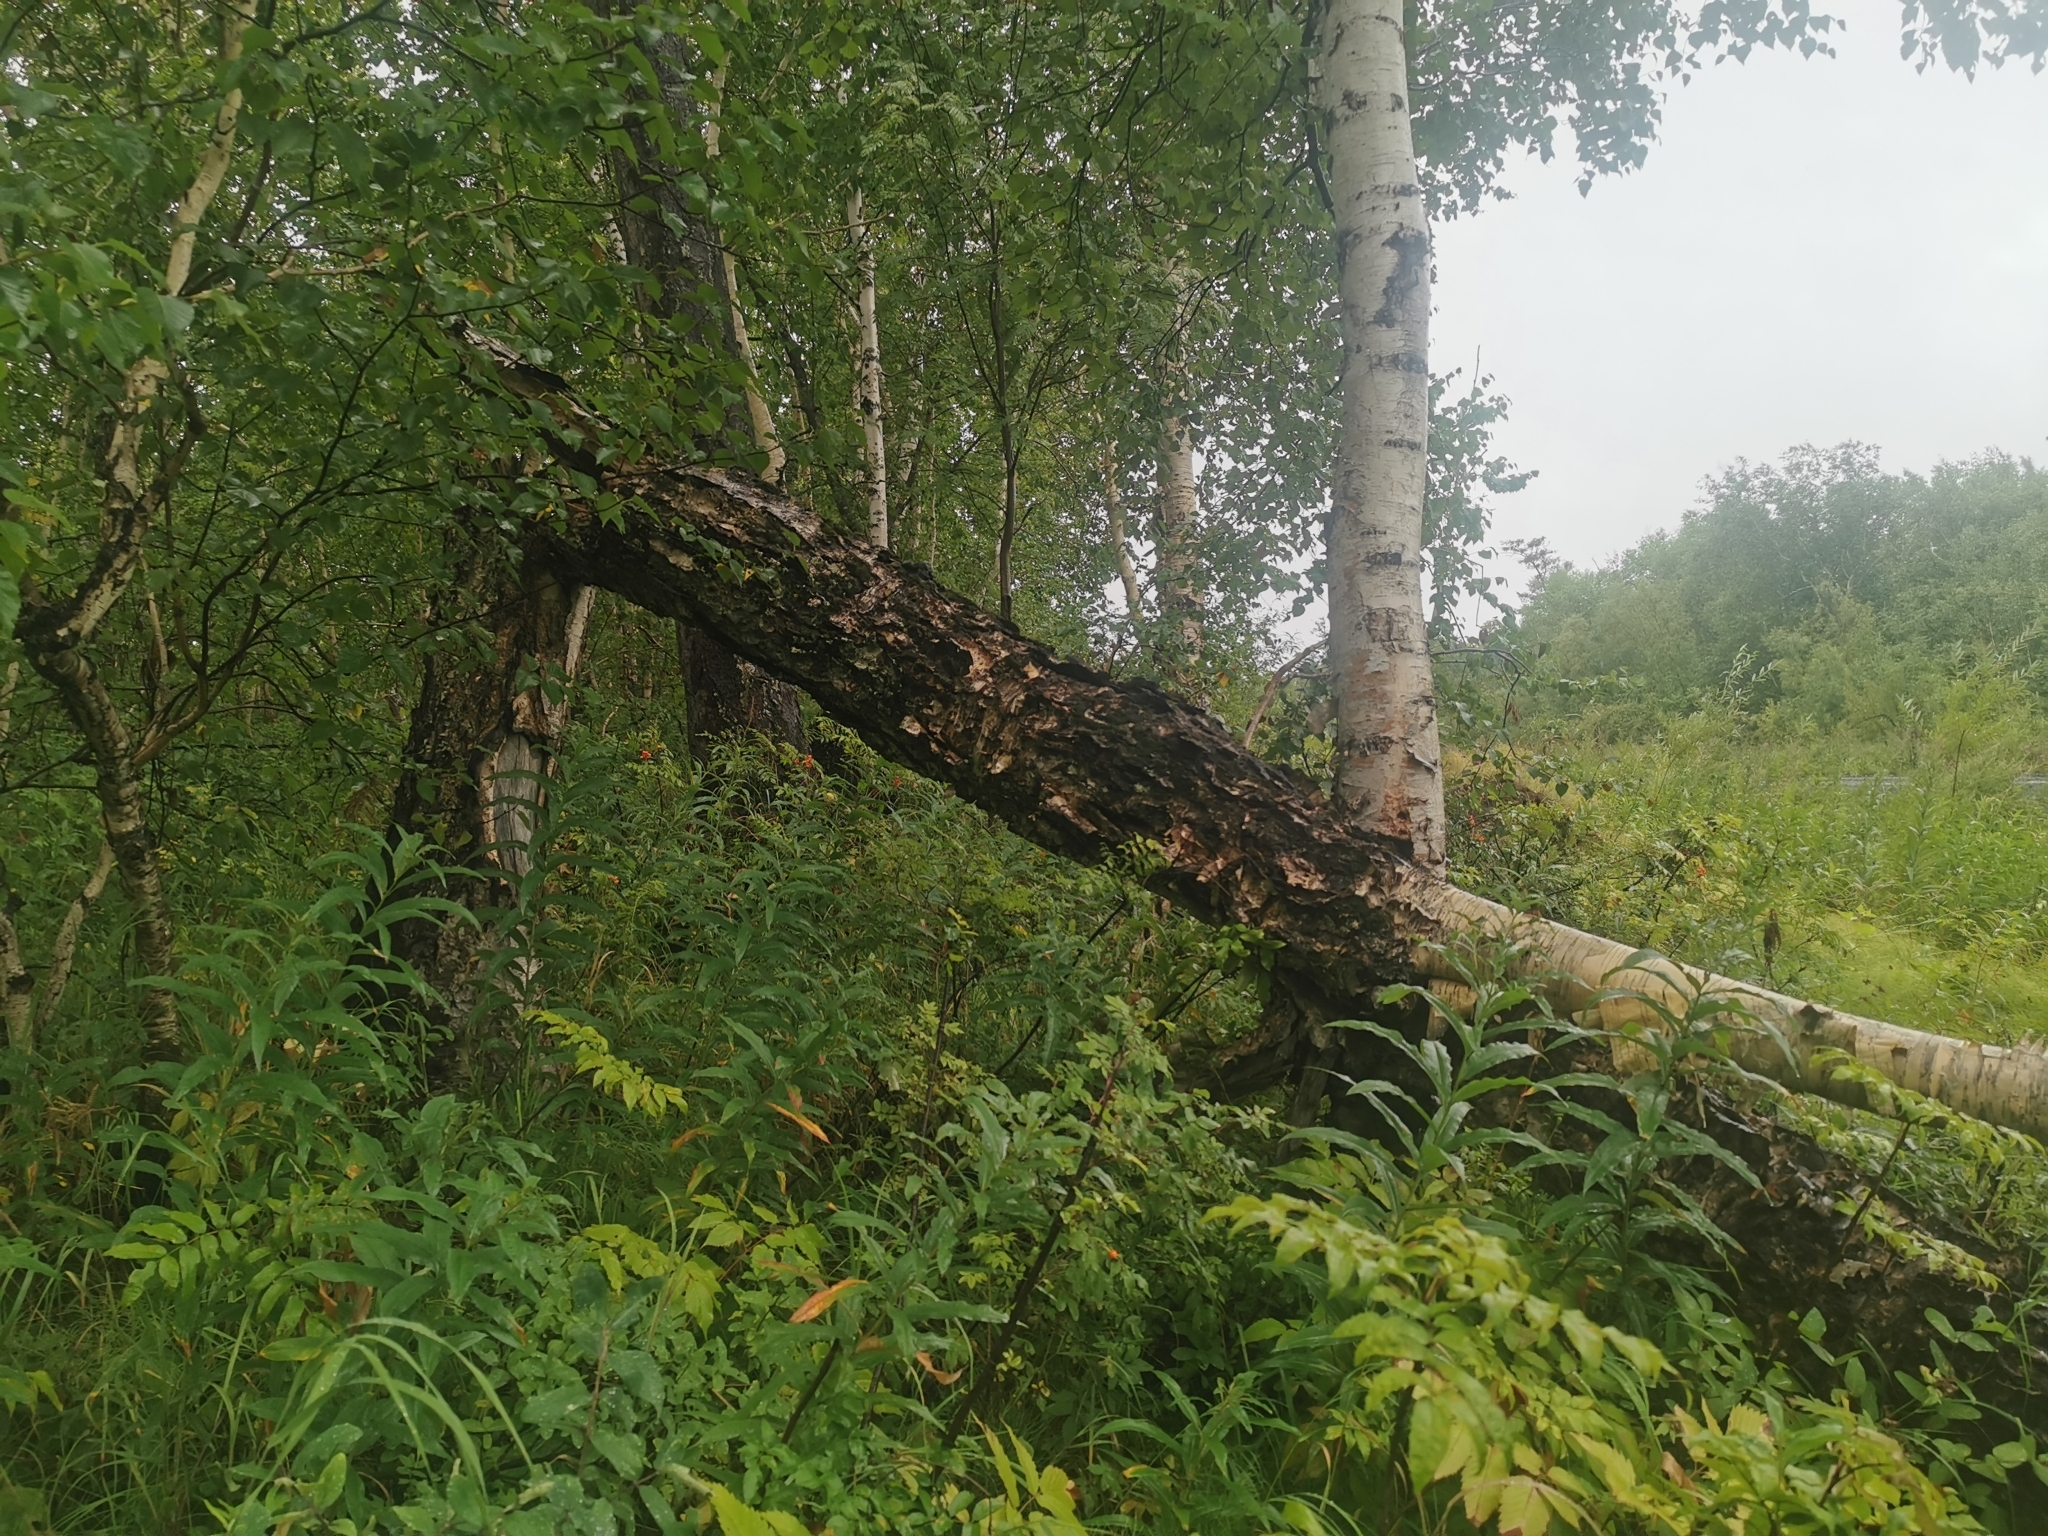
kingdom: Plantae
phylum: Tracheophyta
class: Magnoliopsida
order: Fagales
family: Betulaceae
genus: Betula
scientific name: Betula ermanii
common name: Erman's birch
